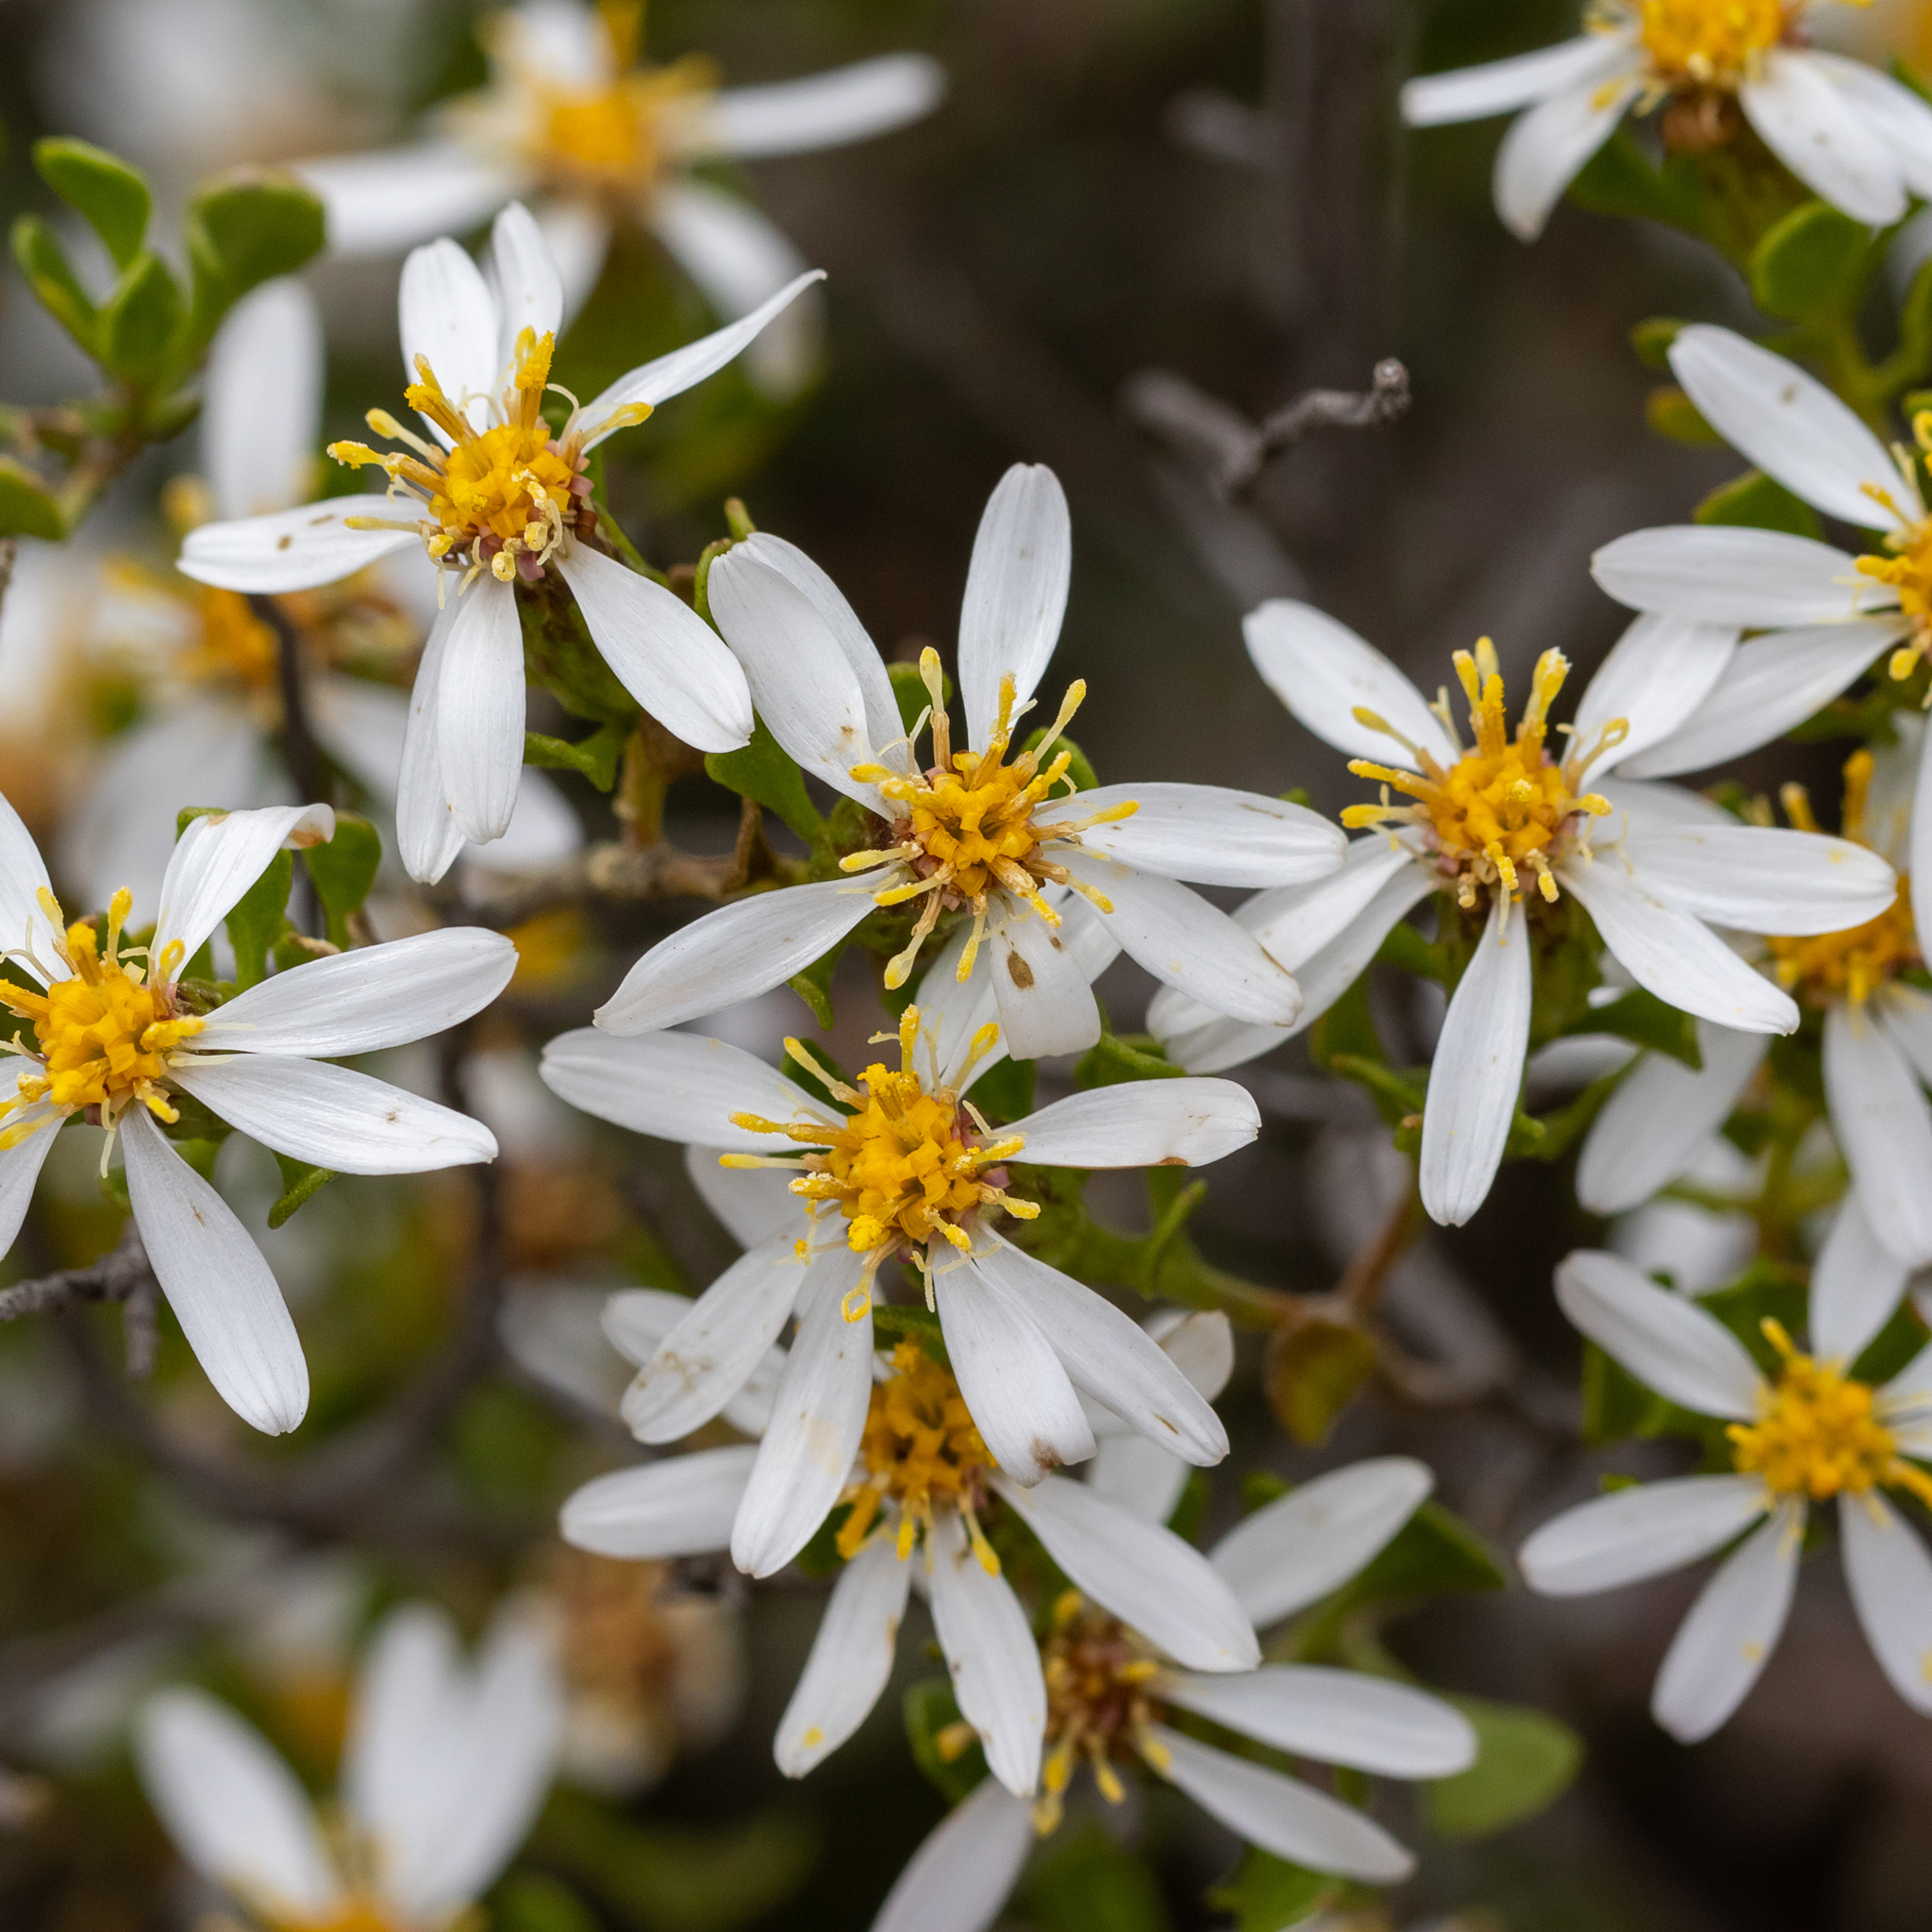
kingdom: Plantae
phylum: Tracheophyta
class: Magnoliopsida
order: Asterales
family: Asteraceae
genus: Walsholaria
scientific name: Walsholaria muelleri
